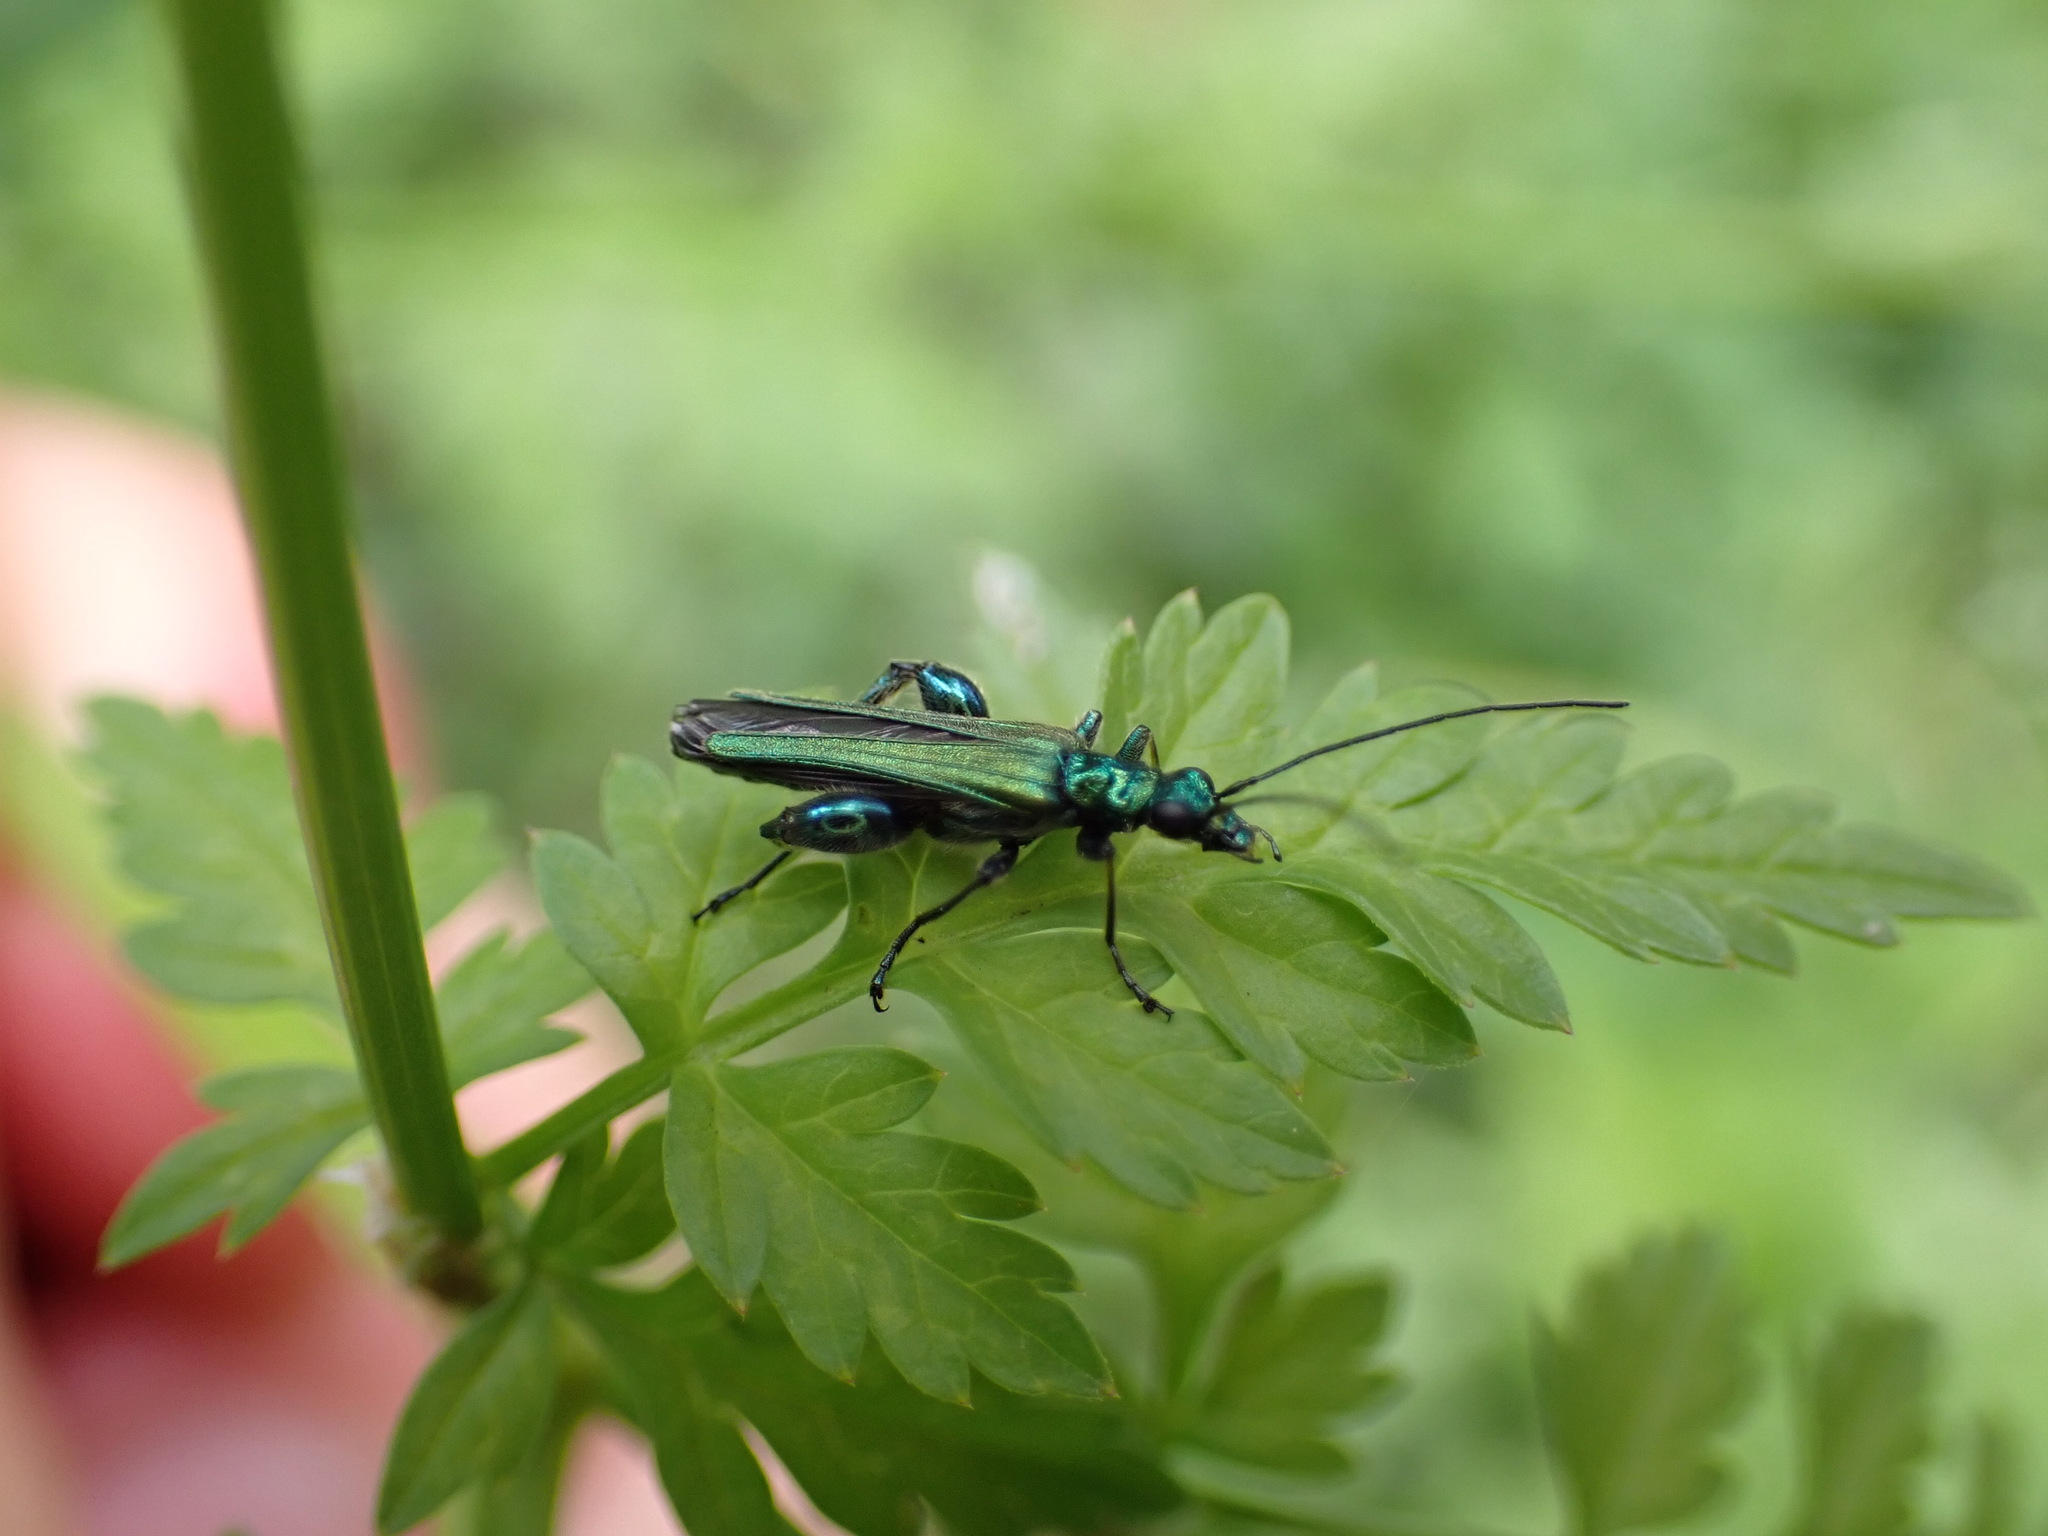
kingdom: Animalia
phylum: Arthropoda
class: Insecta
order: Coleoptera
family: Oedemeridae
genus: Oedemera
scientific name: Oedemera nobilis
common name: Swollen-thighed beetle
